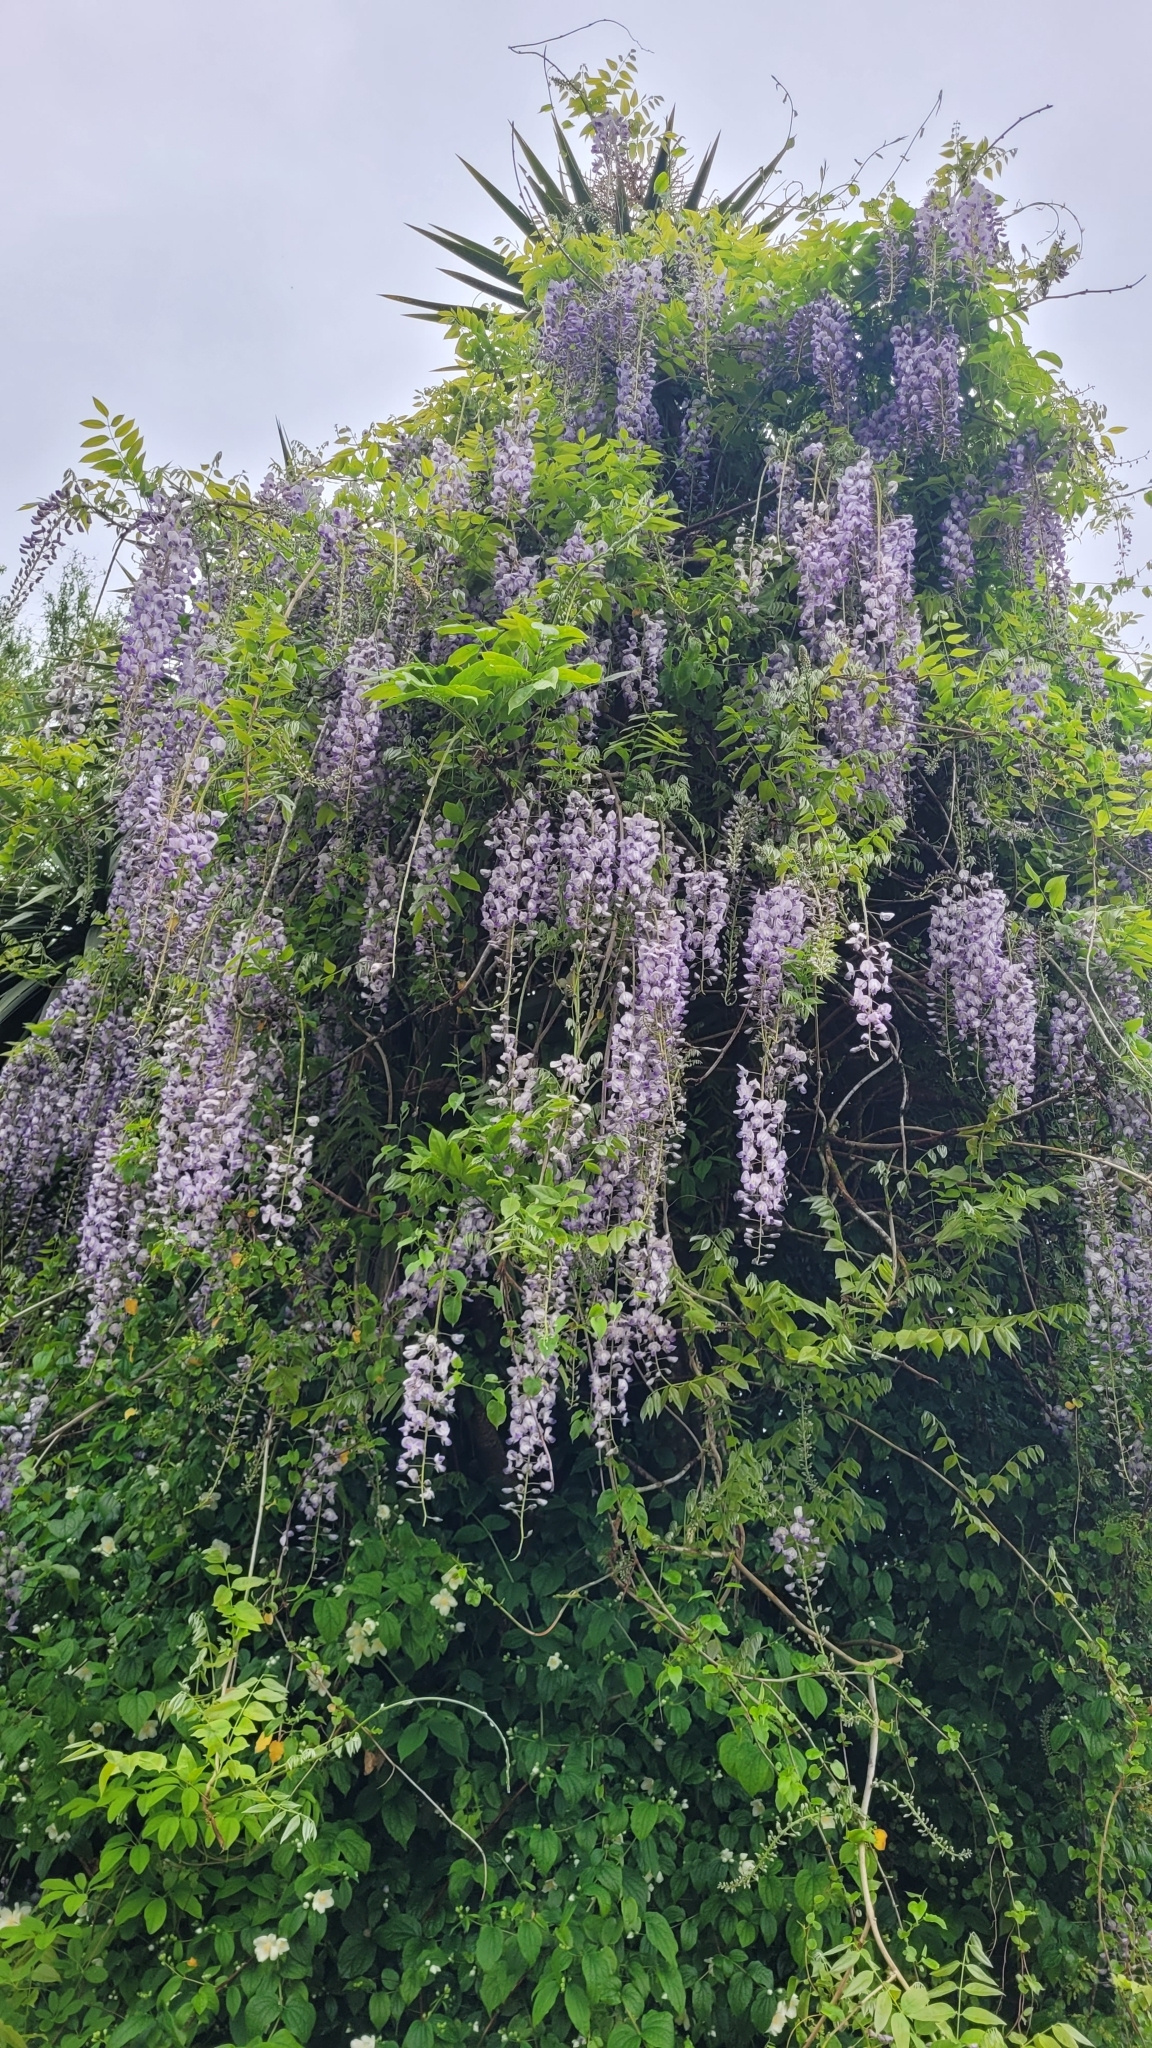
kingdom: Plantae
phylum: Tracheophyta
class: Magnoliopsida
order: Fabales
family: Fabaceae
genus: Wisteria
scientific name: Wisteria sinensis
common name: Chinese wisteria
